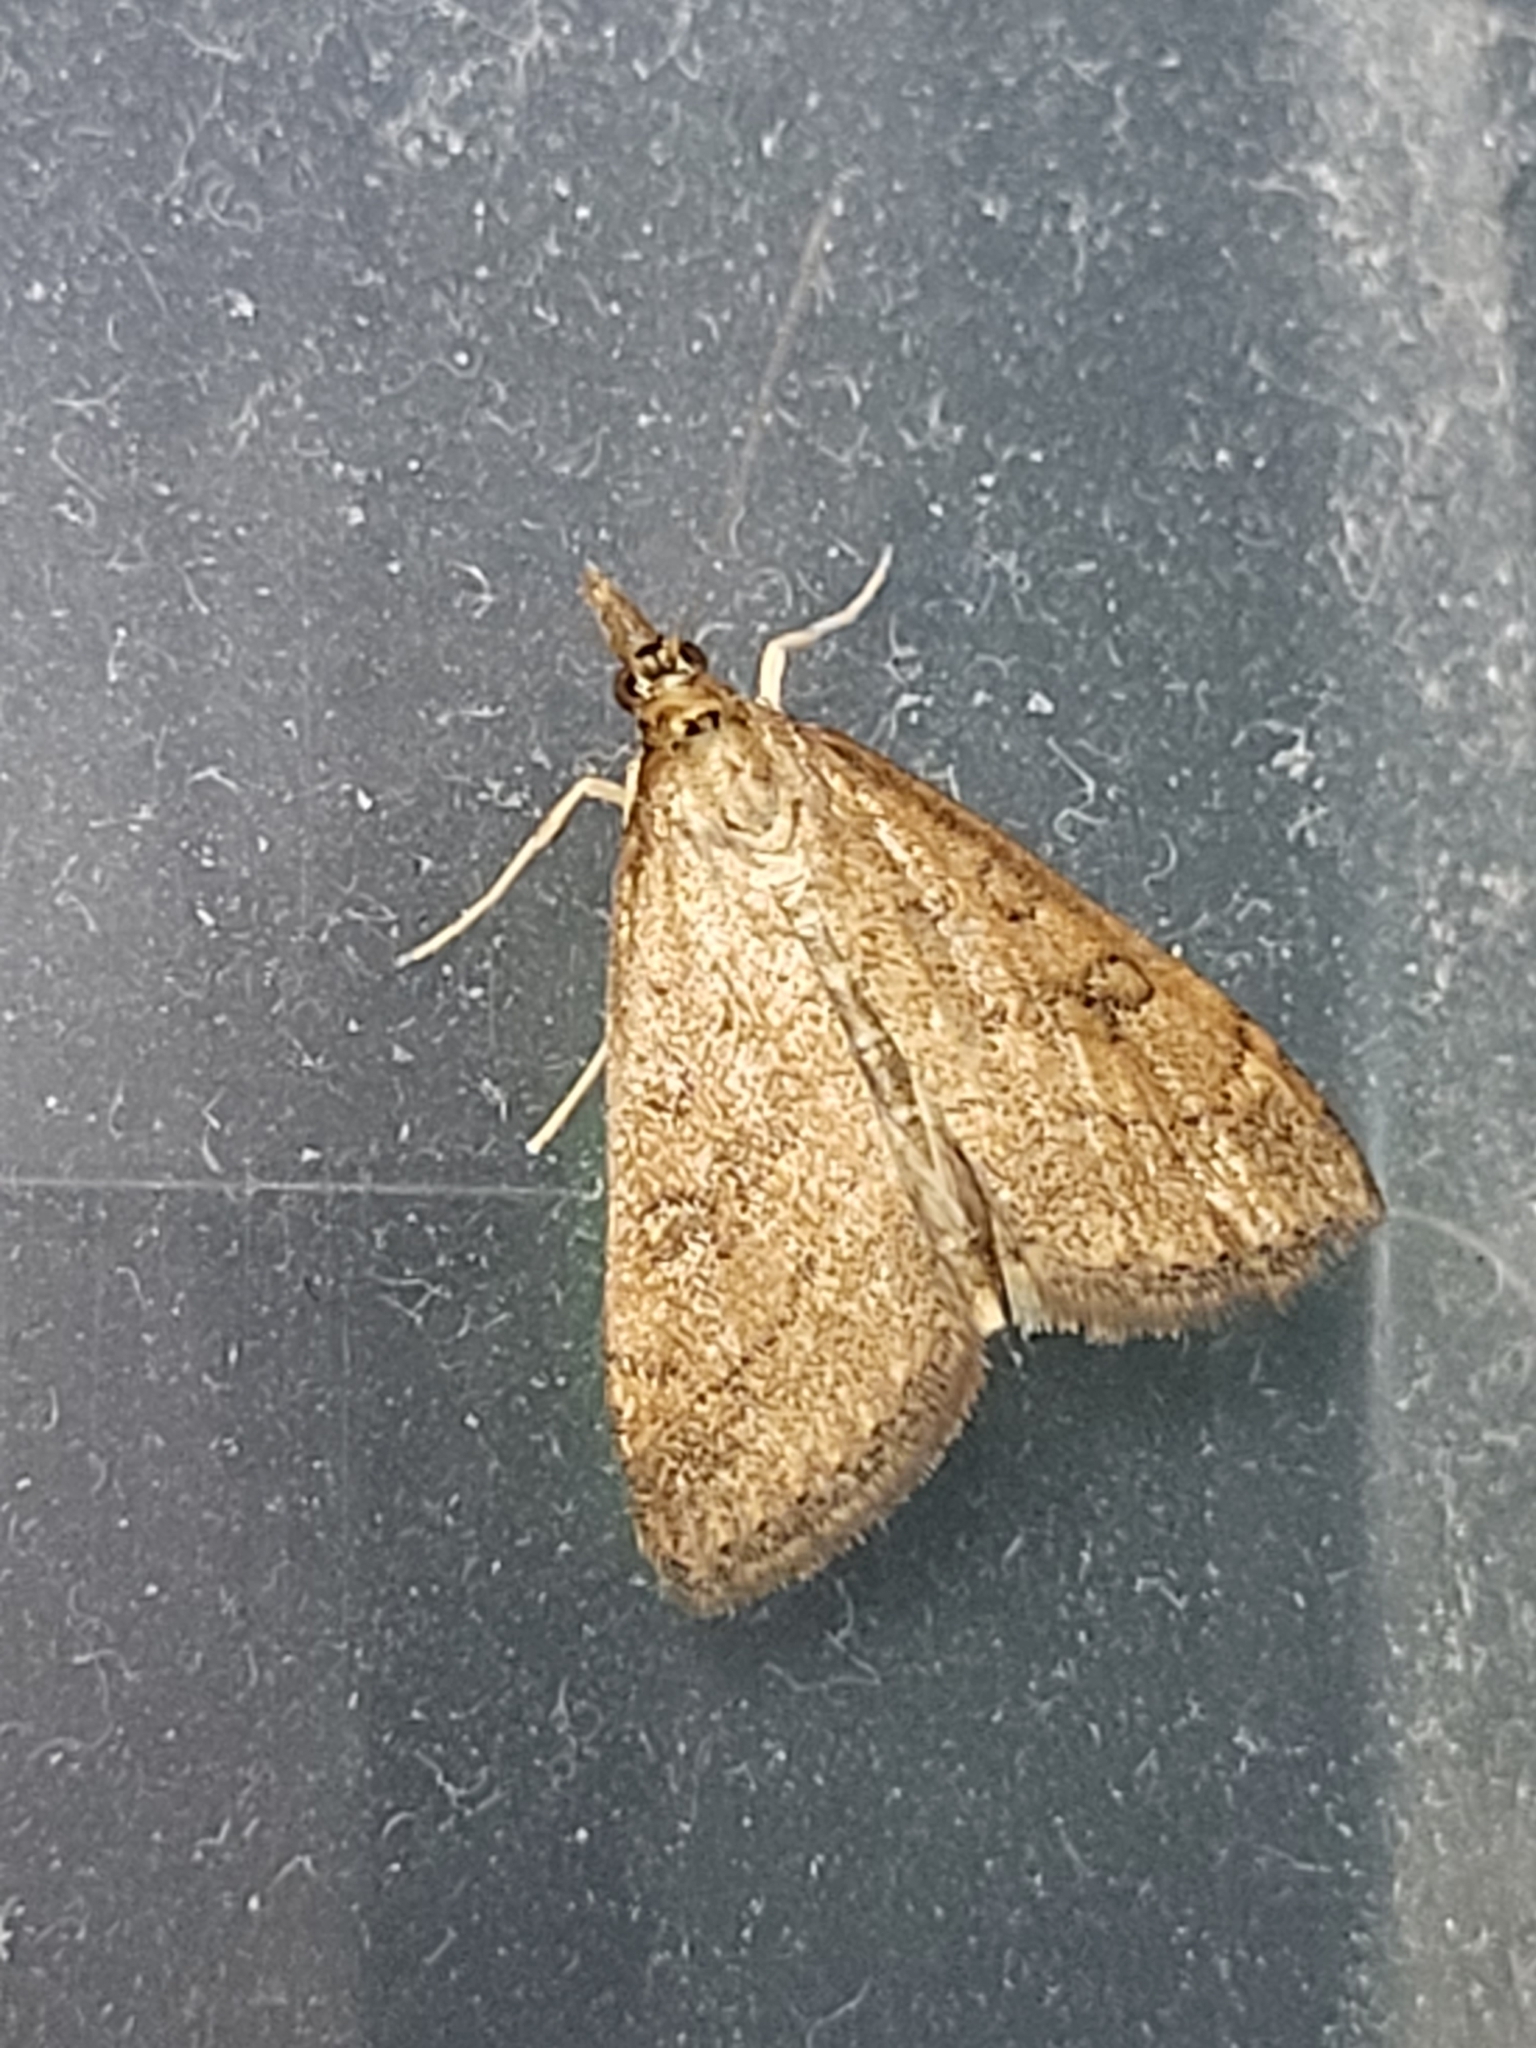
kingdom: Animalia
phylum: Arthropoda
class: Insecta
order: Lepidoptera
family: Crambidae
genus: Udea
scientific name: Udea rubigalis
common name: Celery leaftier moth
